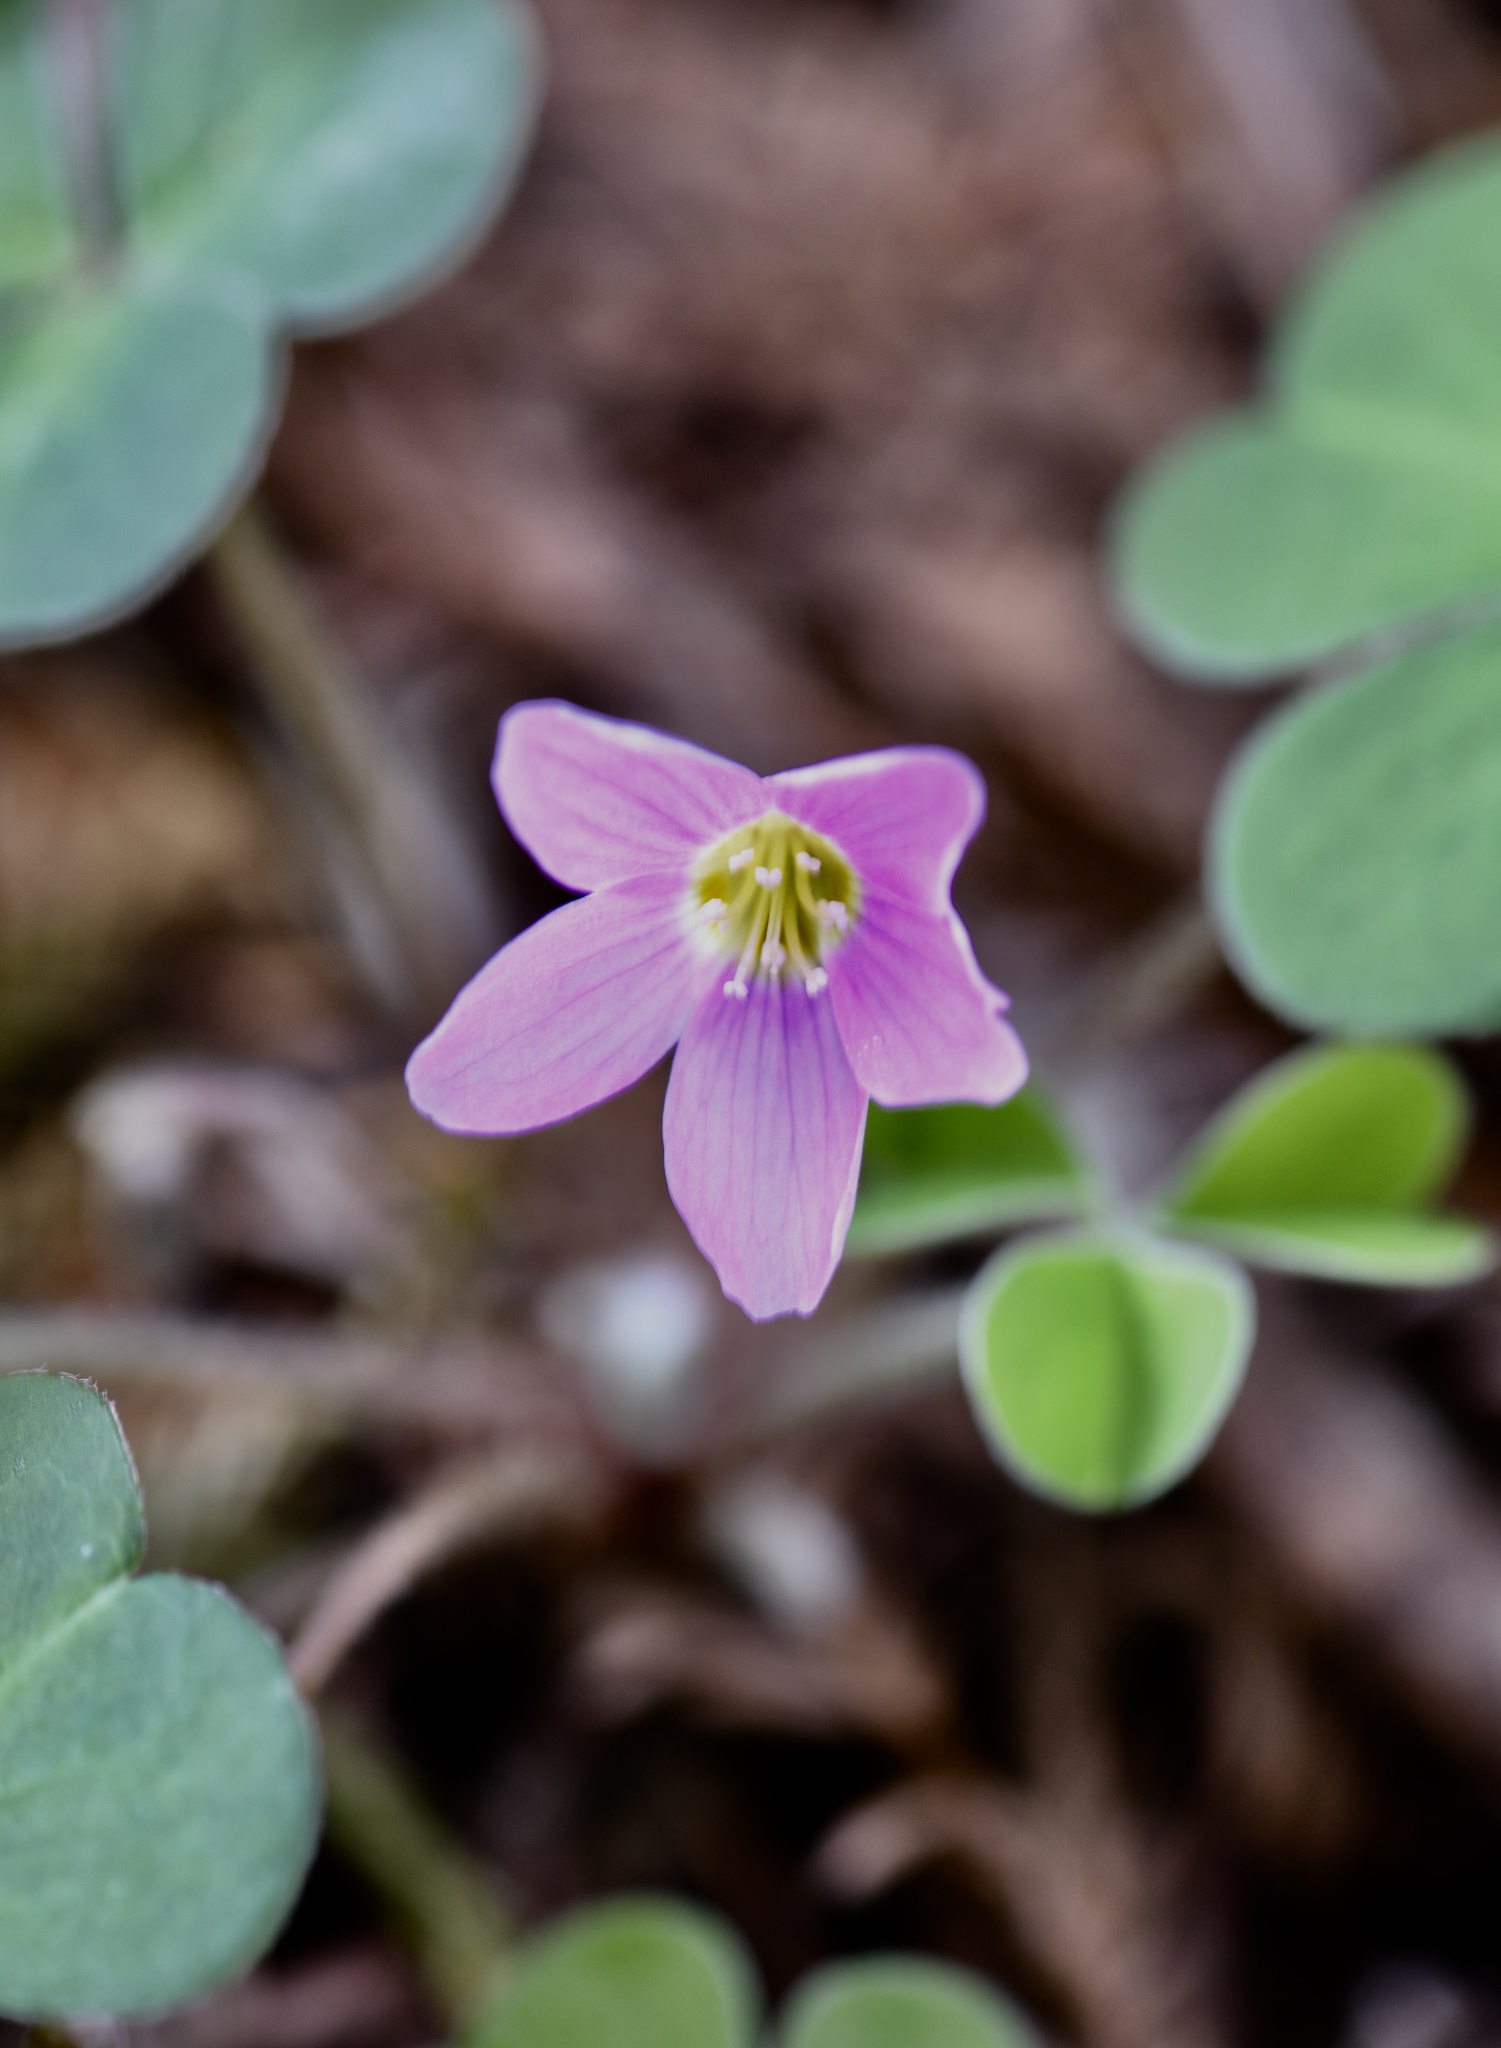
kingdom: Plantae
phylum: Tracheophyta
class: Magnoliopsida
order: Oxalidales
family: Oxalidaceae
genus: Oxalis
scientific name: Oxalis oregana
